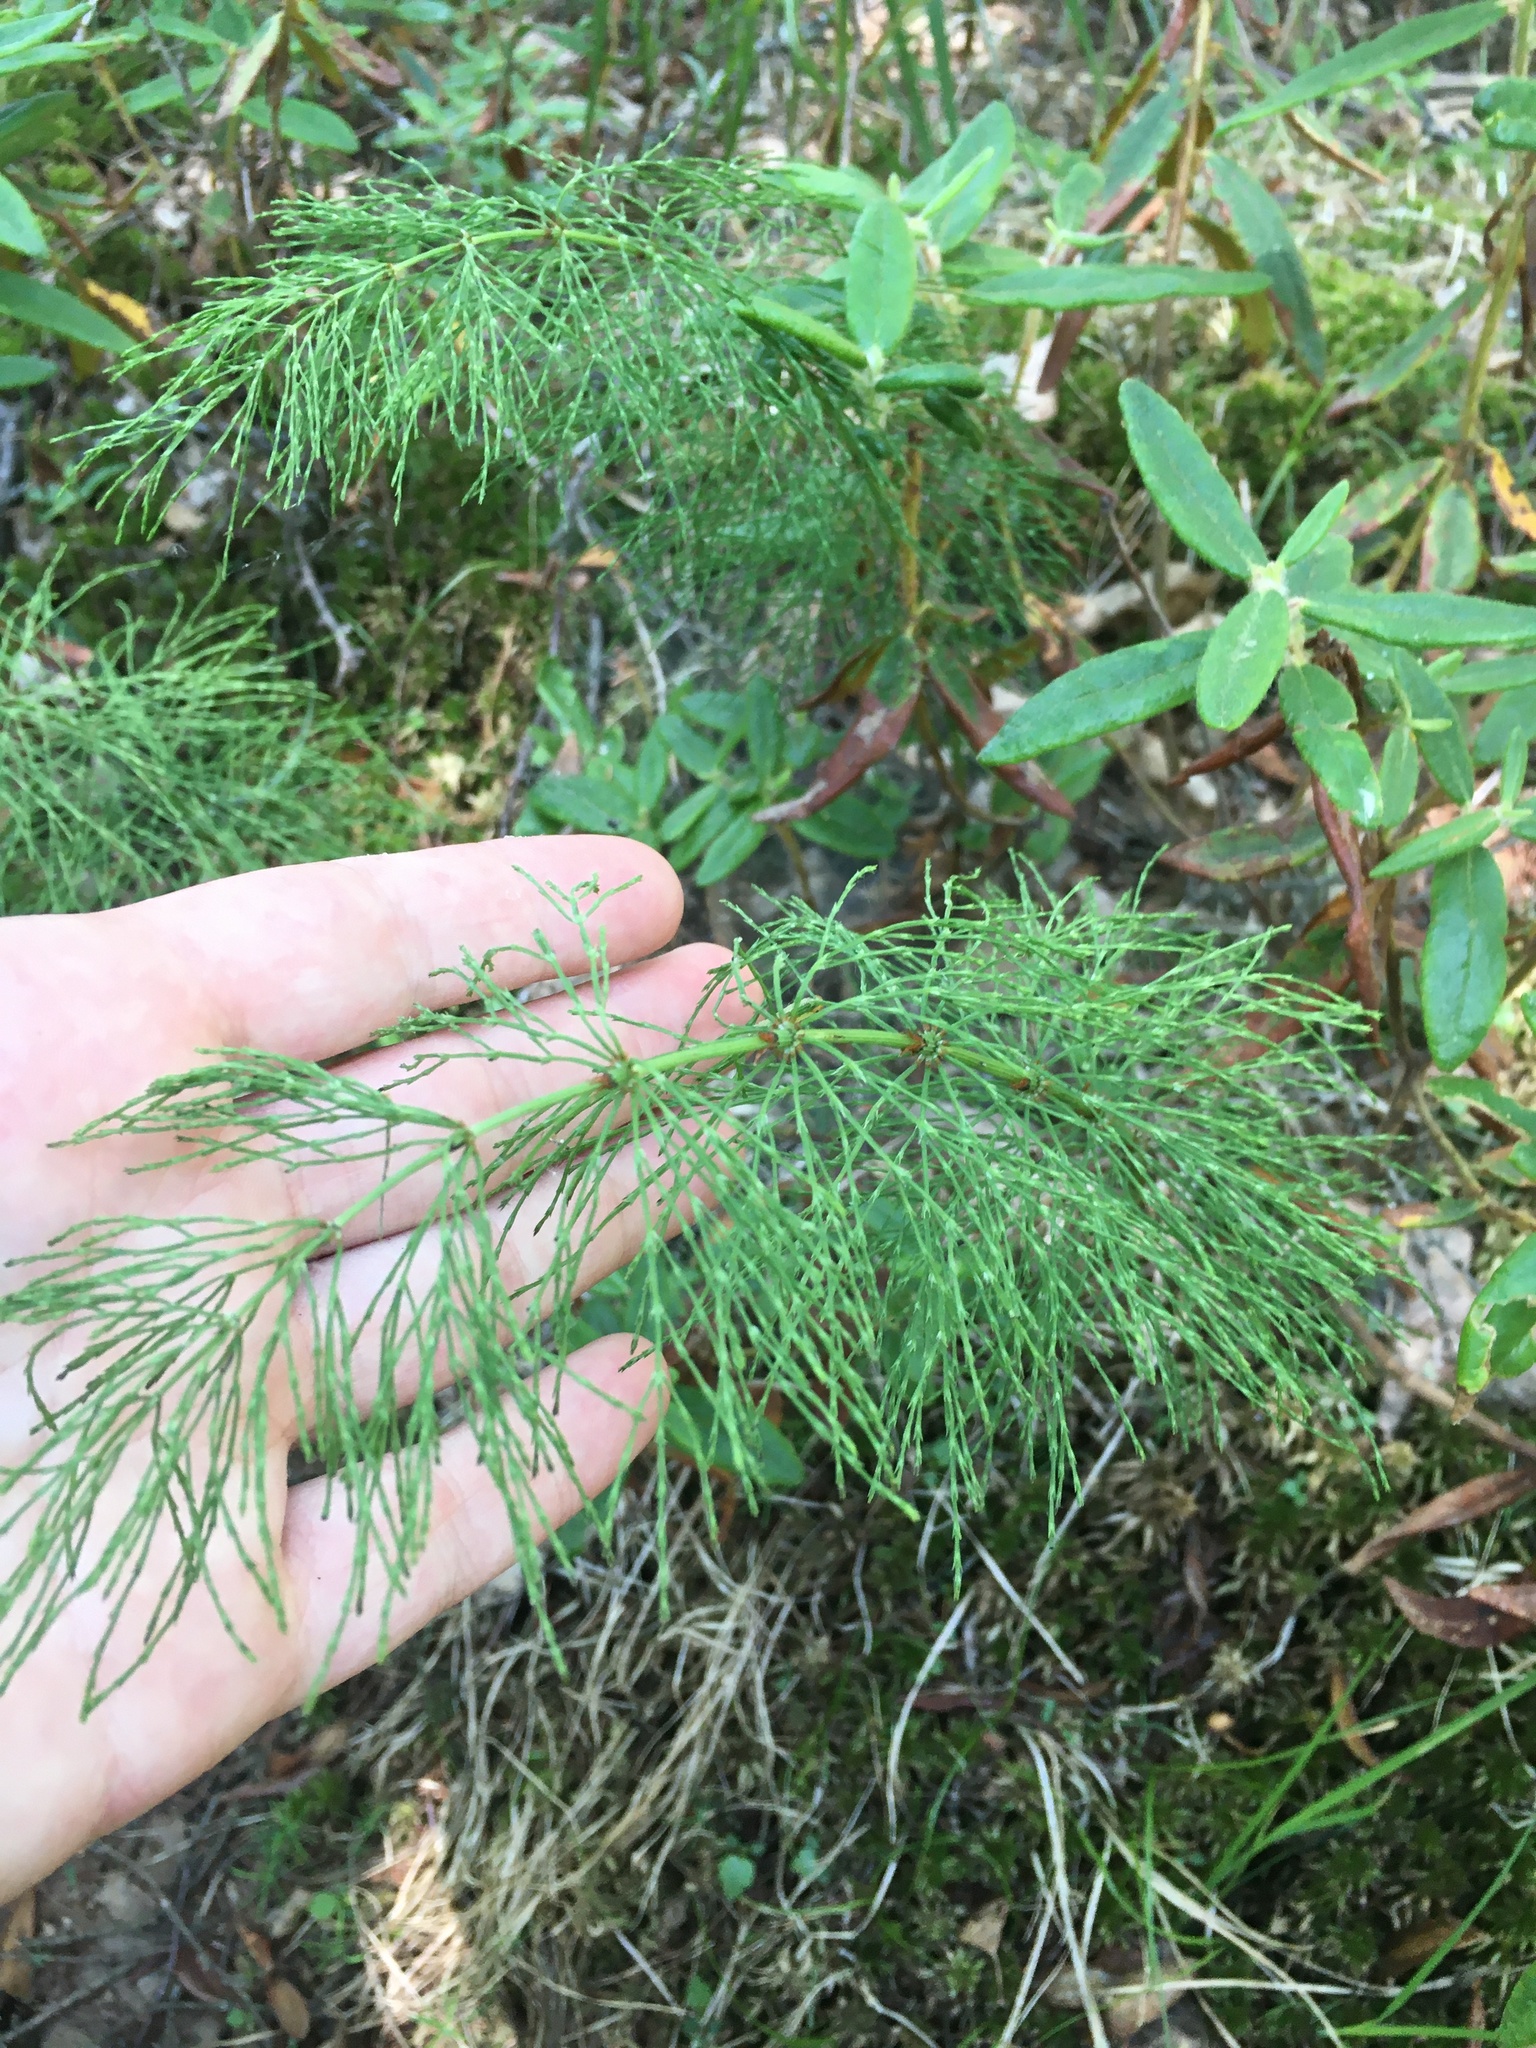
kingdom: Plantae
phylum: Tracheophyta
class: Polypodiopsida
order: Equisetales
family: Equisetaceae
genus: Equisetum
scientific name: Equisetum sylvaticum
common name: Wood horsetail
